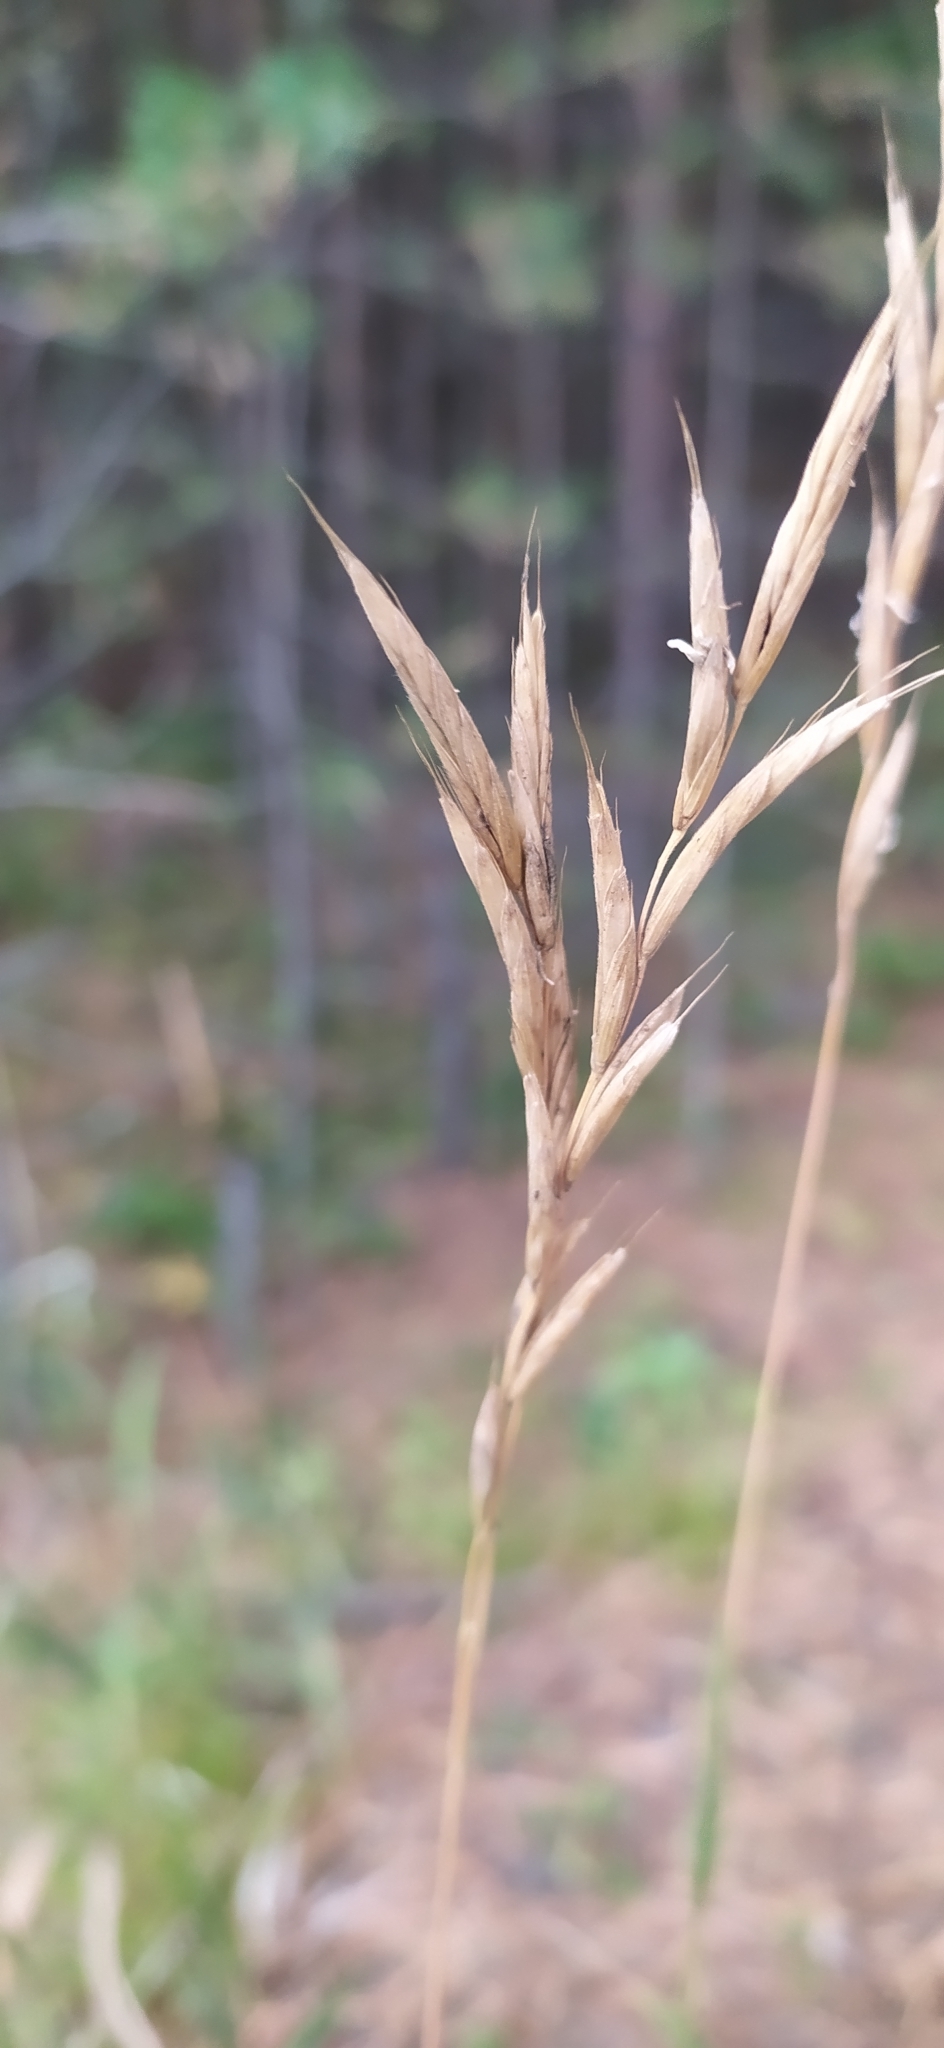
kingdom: Plantae
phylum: Tracheophyta
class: Liliopsida
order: Poales
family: Poaceae
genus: Brachypodium
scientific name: Brachypodium pinnatum
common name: Tor grass
